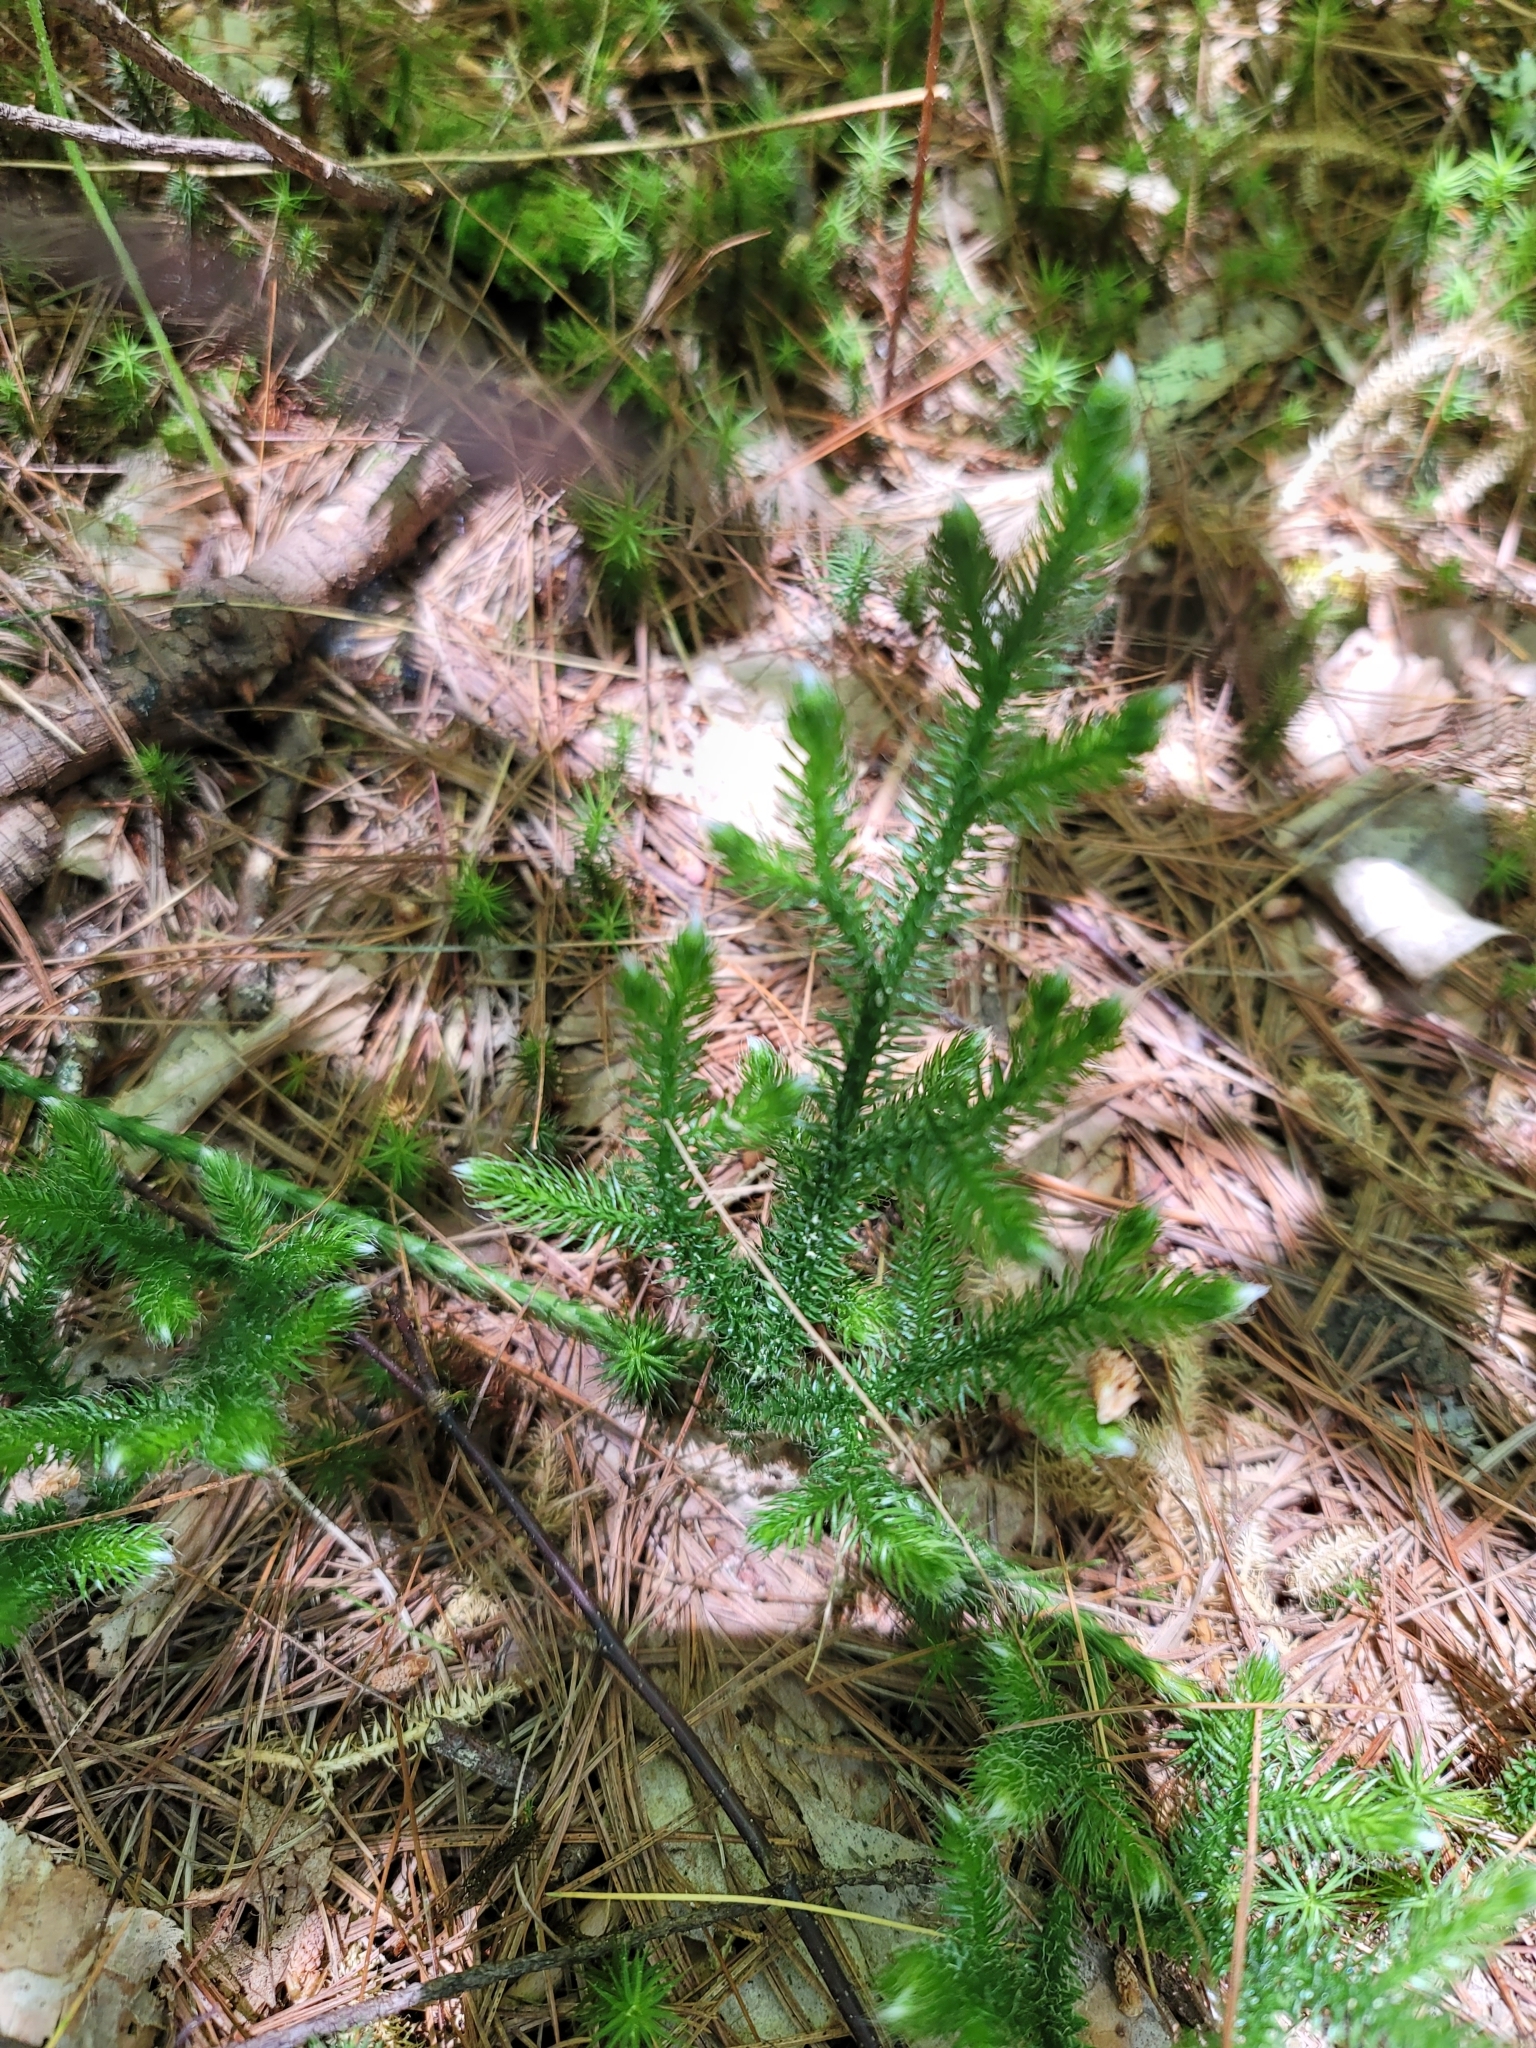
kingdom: Plantae
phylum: Tracheophyta
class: Lycopodiopsida
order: Lycopodiales
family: Lycopodiaceae
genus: Lycopodium
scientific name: Lycopodium clavatum
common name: Stag's-horn clubmoss
